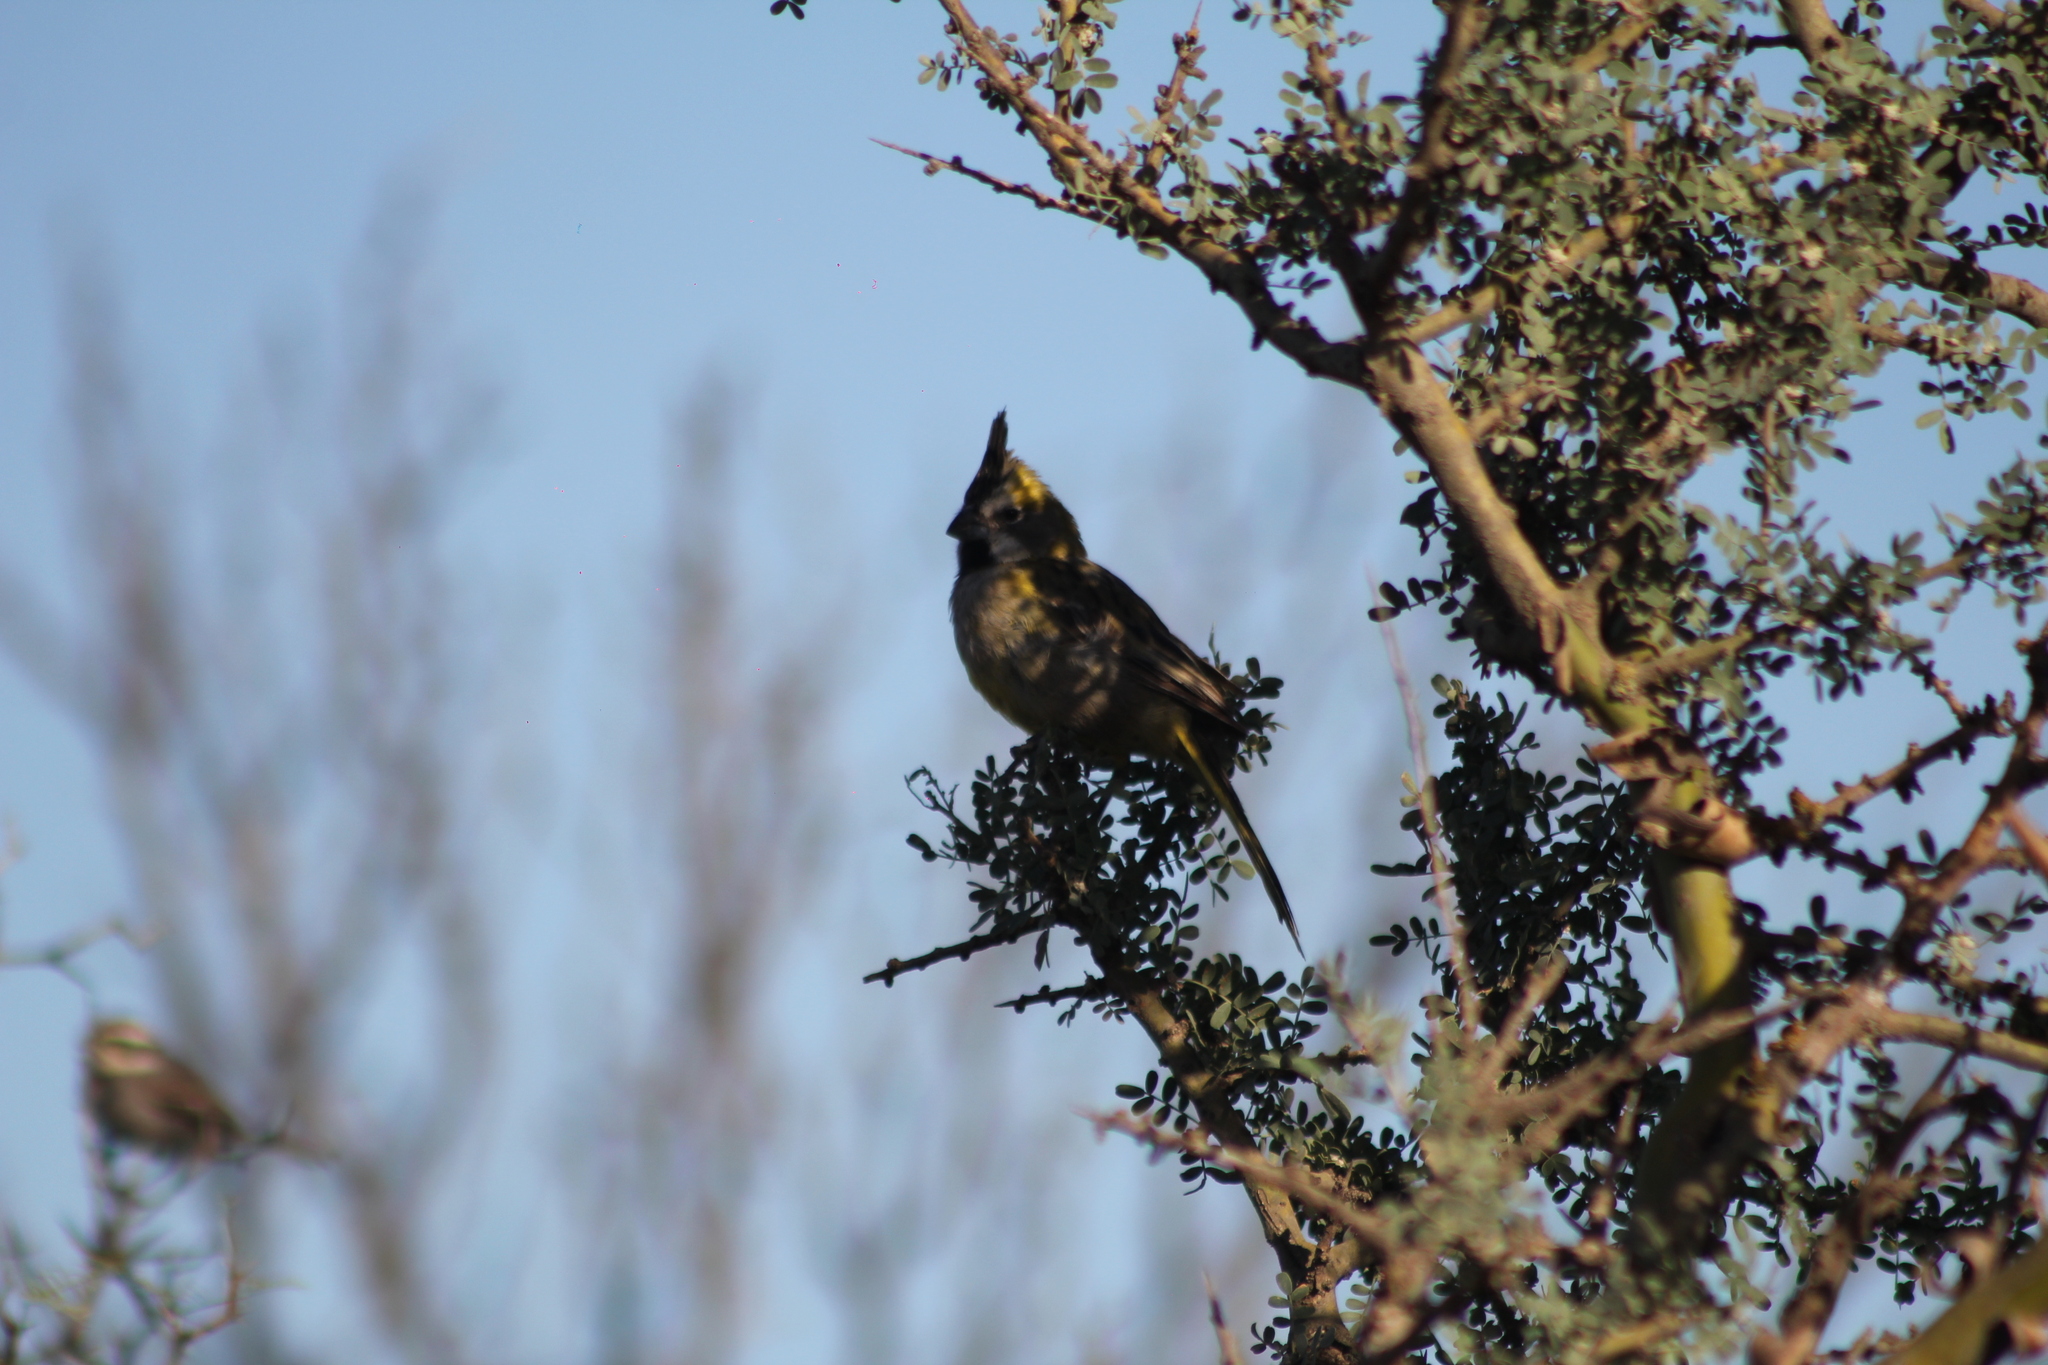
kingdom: Animalia
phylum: Chordata
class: Aves
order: Passeriformes
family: Thraupidae
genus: Gubernatrix
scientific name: Gubernatrix cristata
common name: Yellow cardinal
